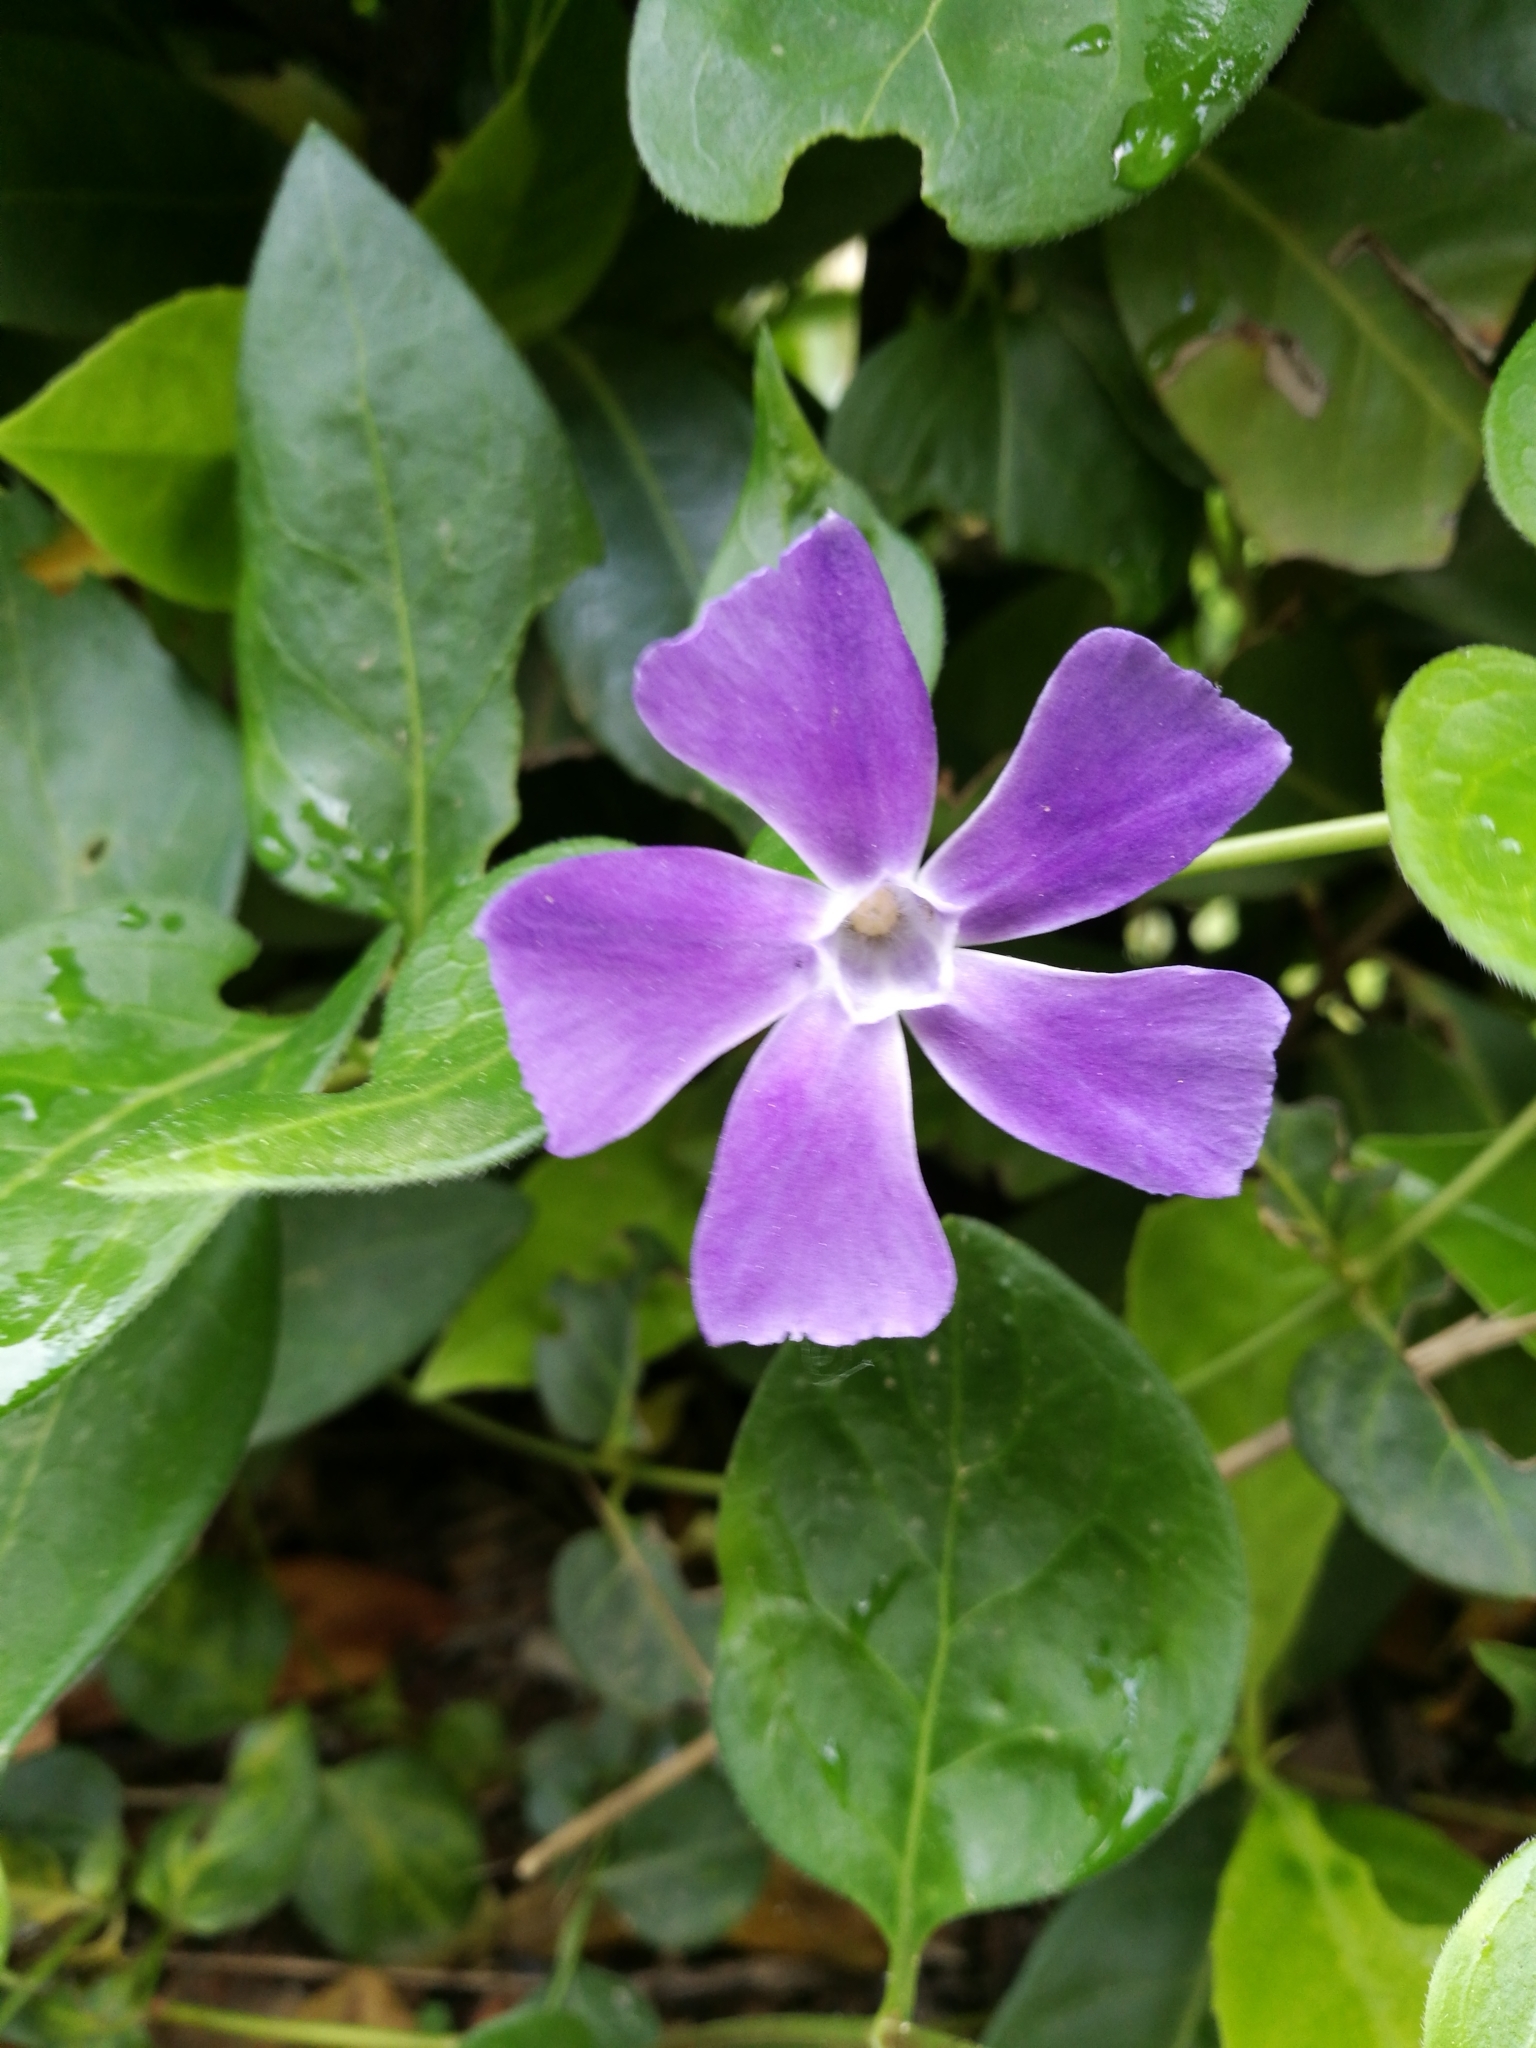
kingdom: Plantae
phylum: Tracheophyta
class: Magnoliopsida
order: Gentianales
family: Apocynaceae
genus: Vinca
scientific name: Vinca major
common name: Greater periwinkle
